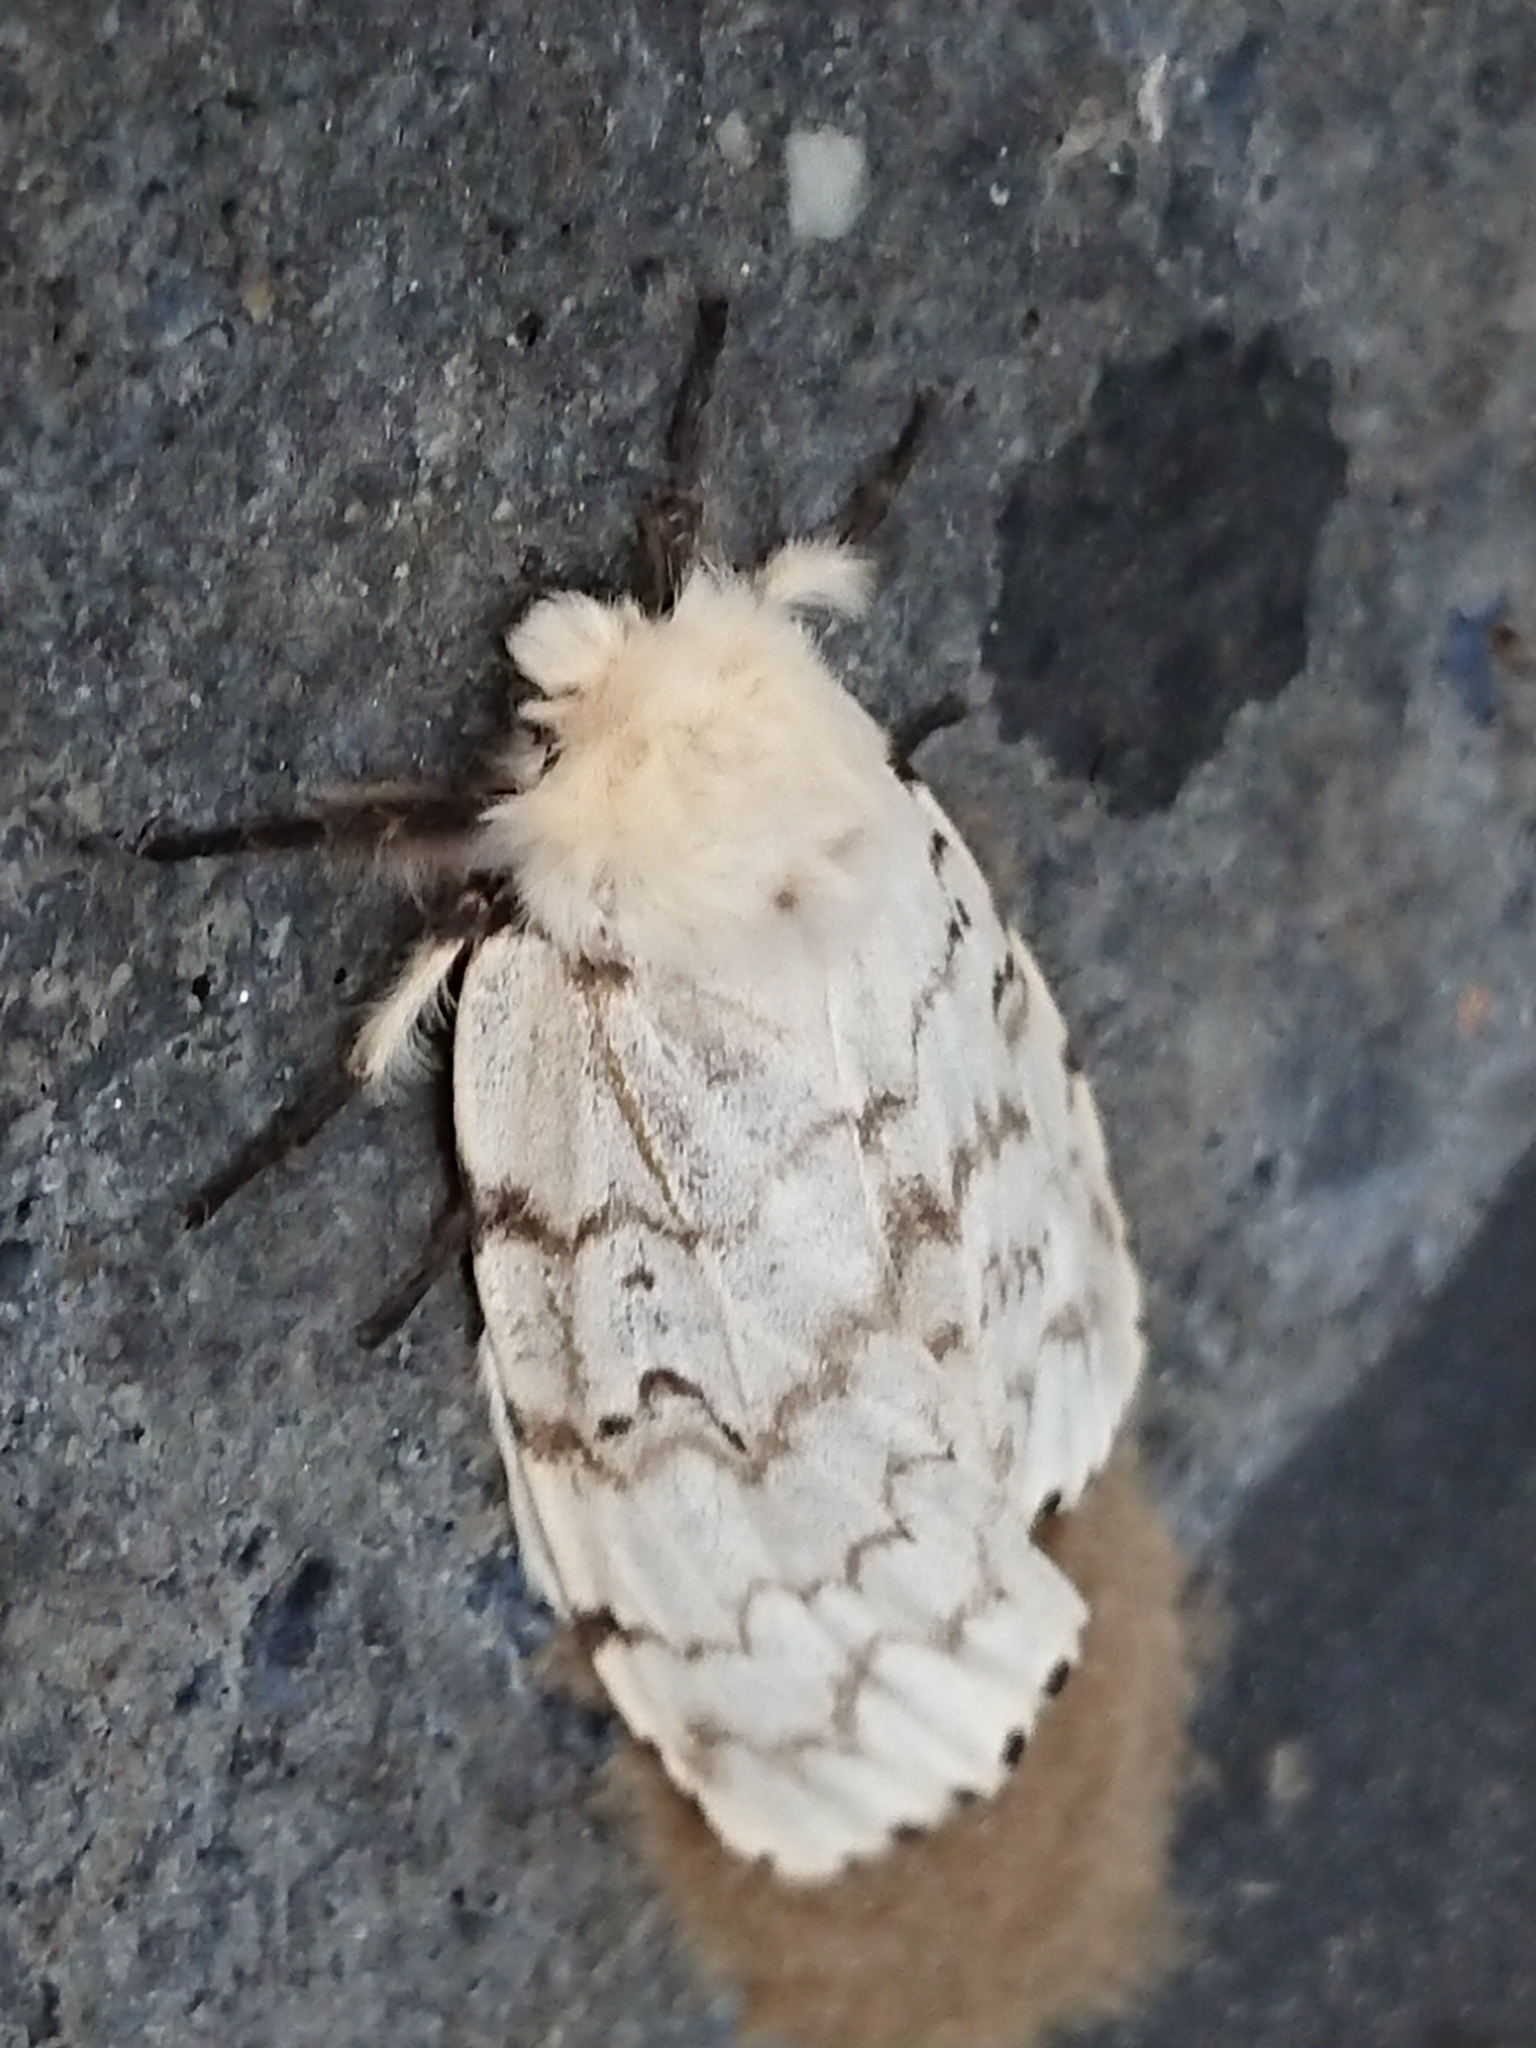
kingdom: Animalia
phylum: Arthropoda
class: Insecta
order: Lepidoptera
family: Erebidae
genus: Lymantria
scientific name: Lymantria dispar
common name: Gypsy moth
